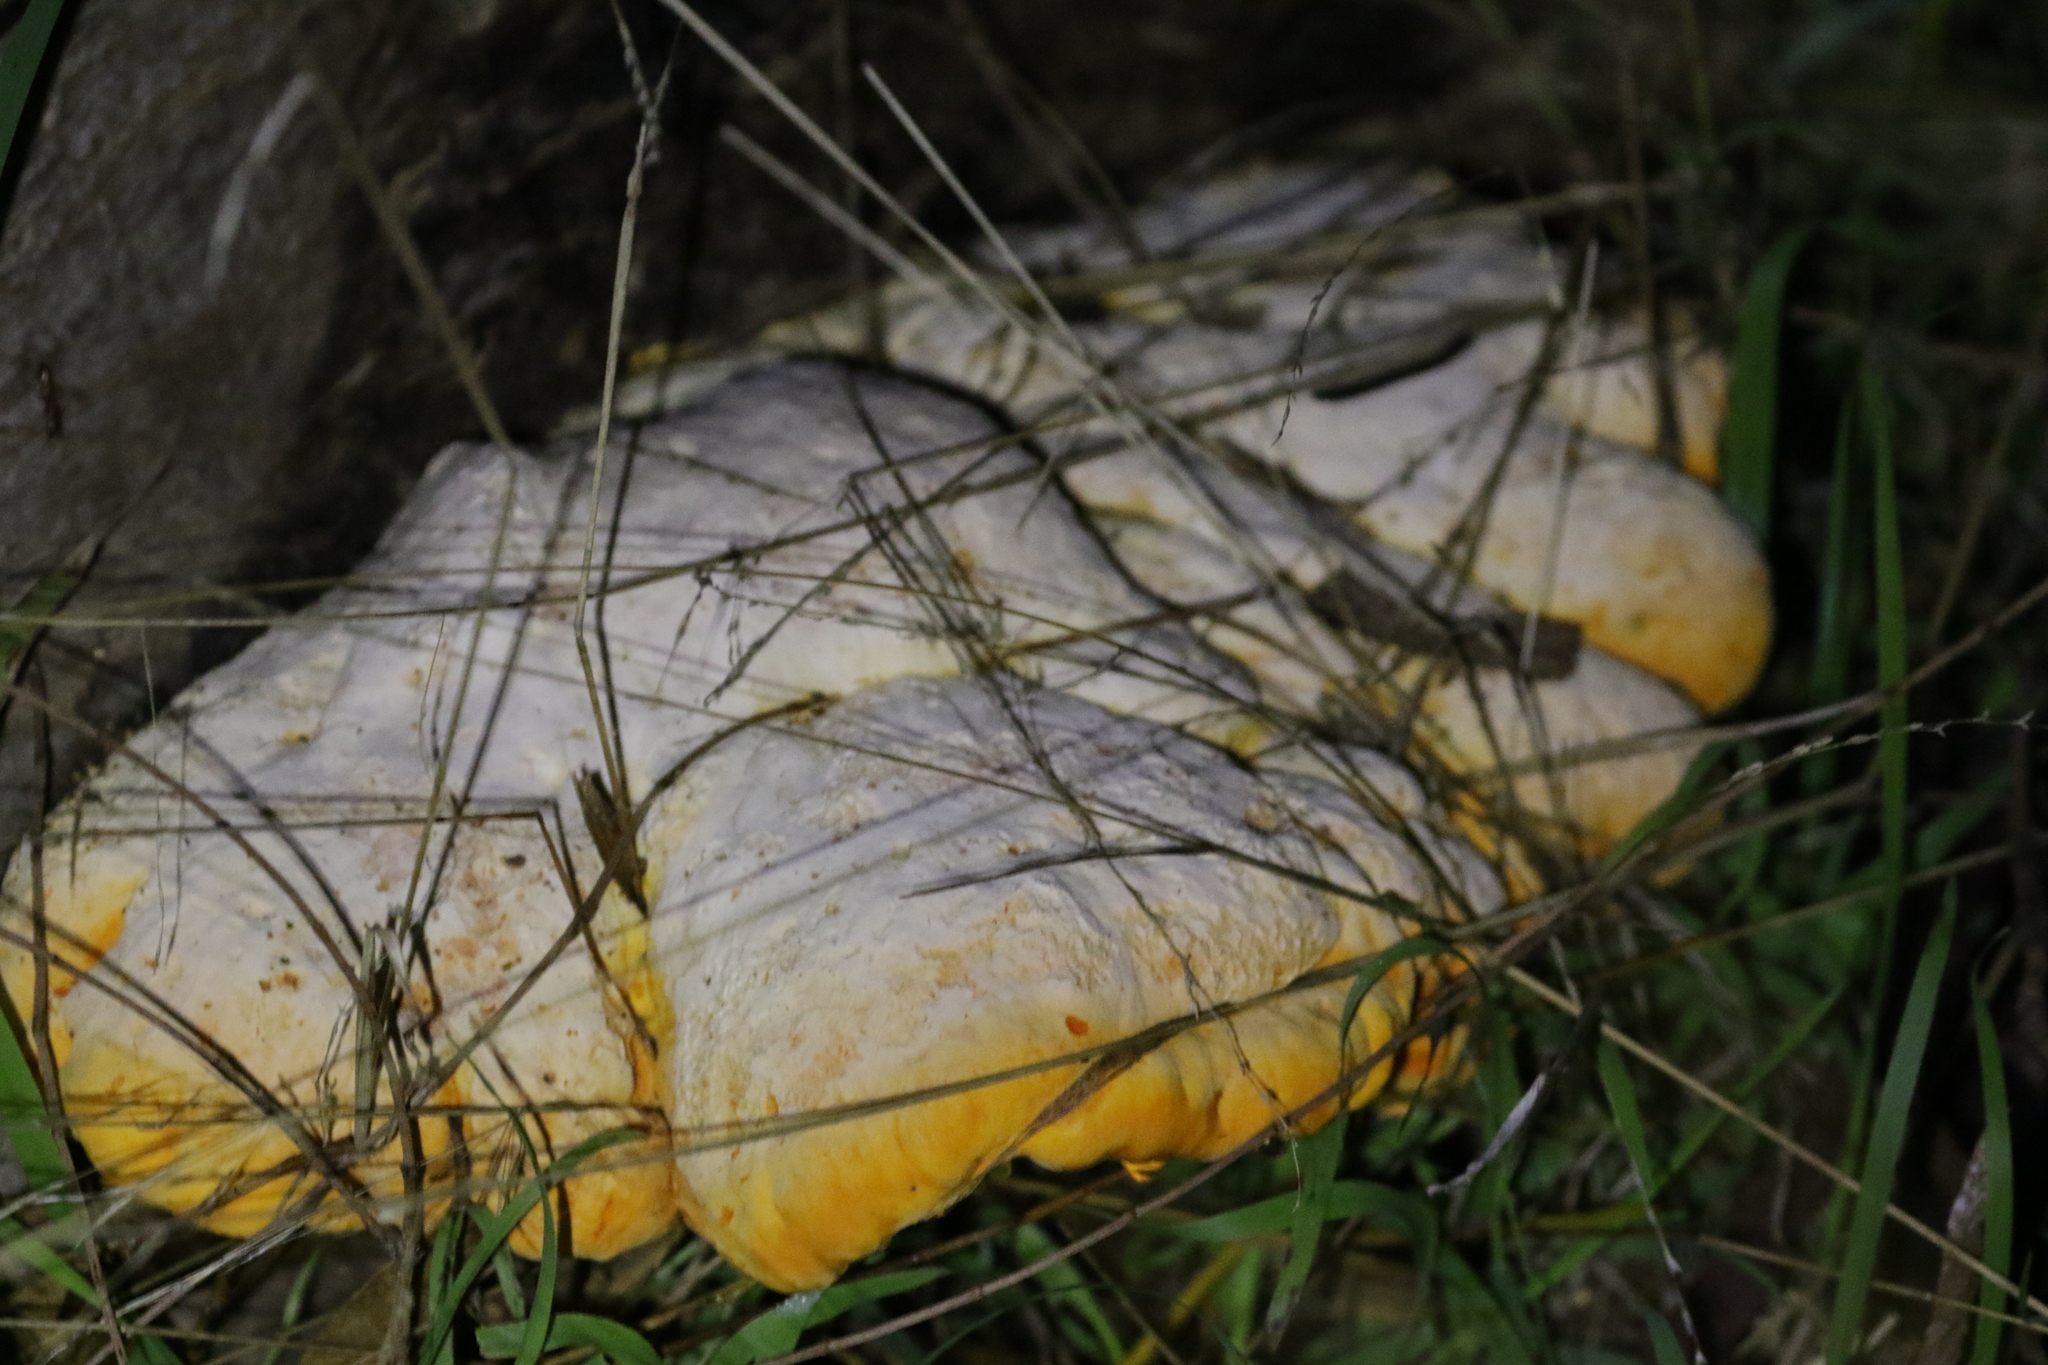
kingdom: Fungi
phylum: Basidiomycota
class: Agaricomycetes
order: Polyporales
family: Polyporaceae
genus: Polyporus
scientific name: Polyporus australiensis
